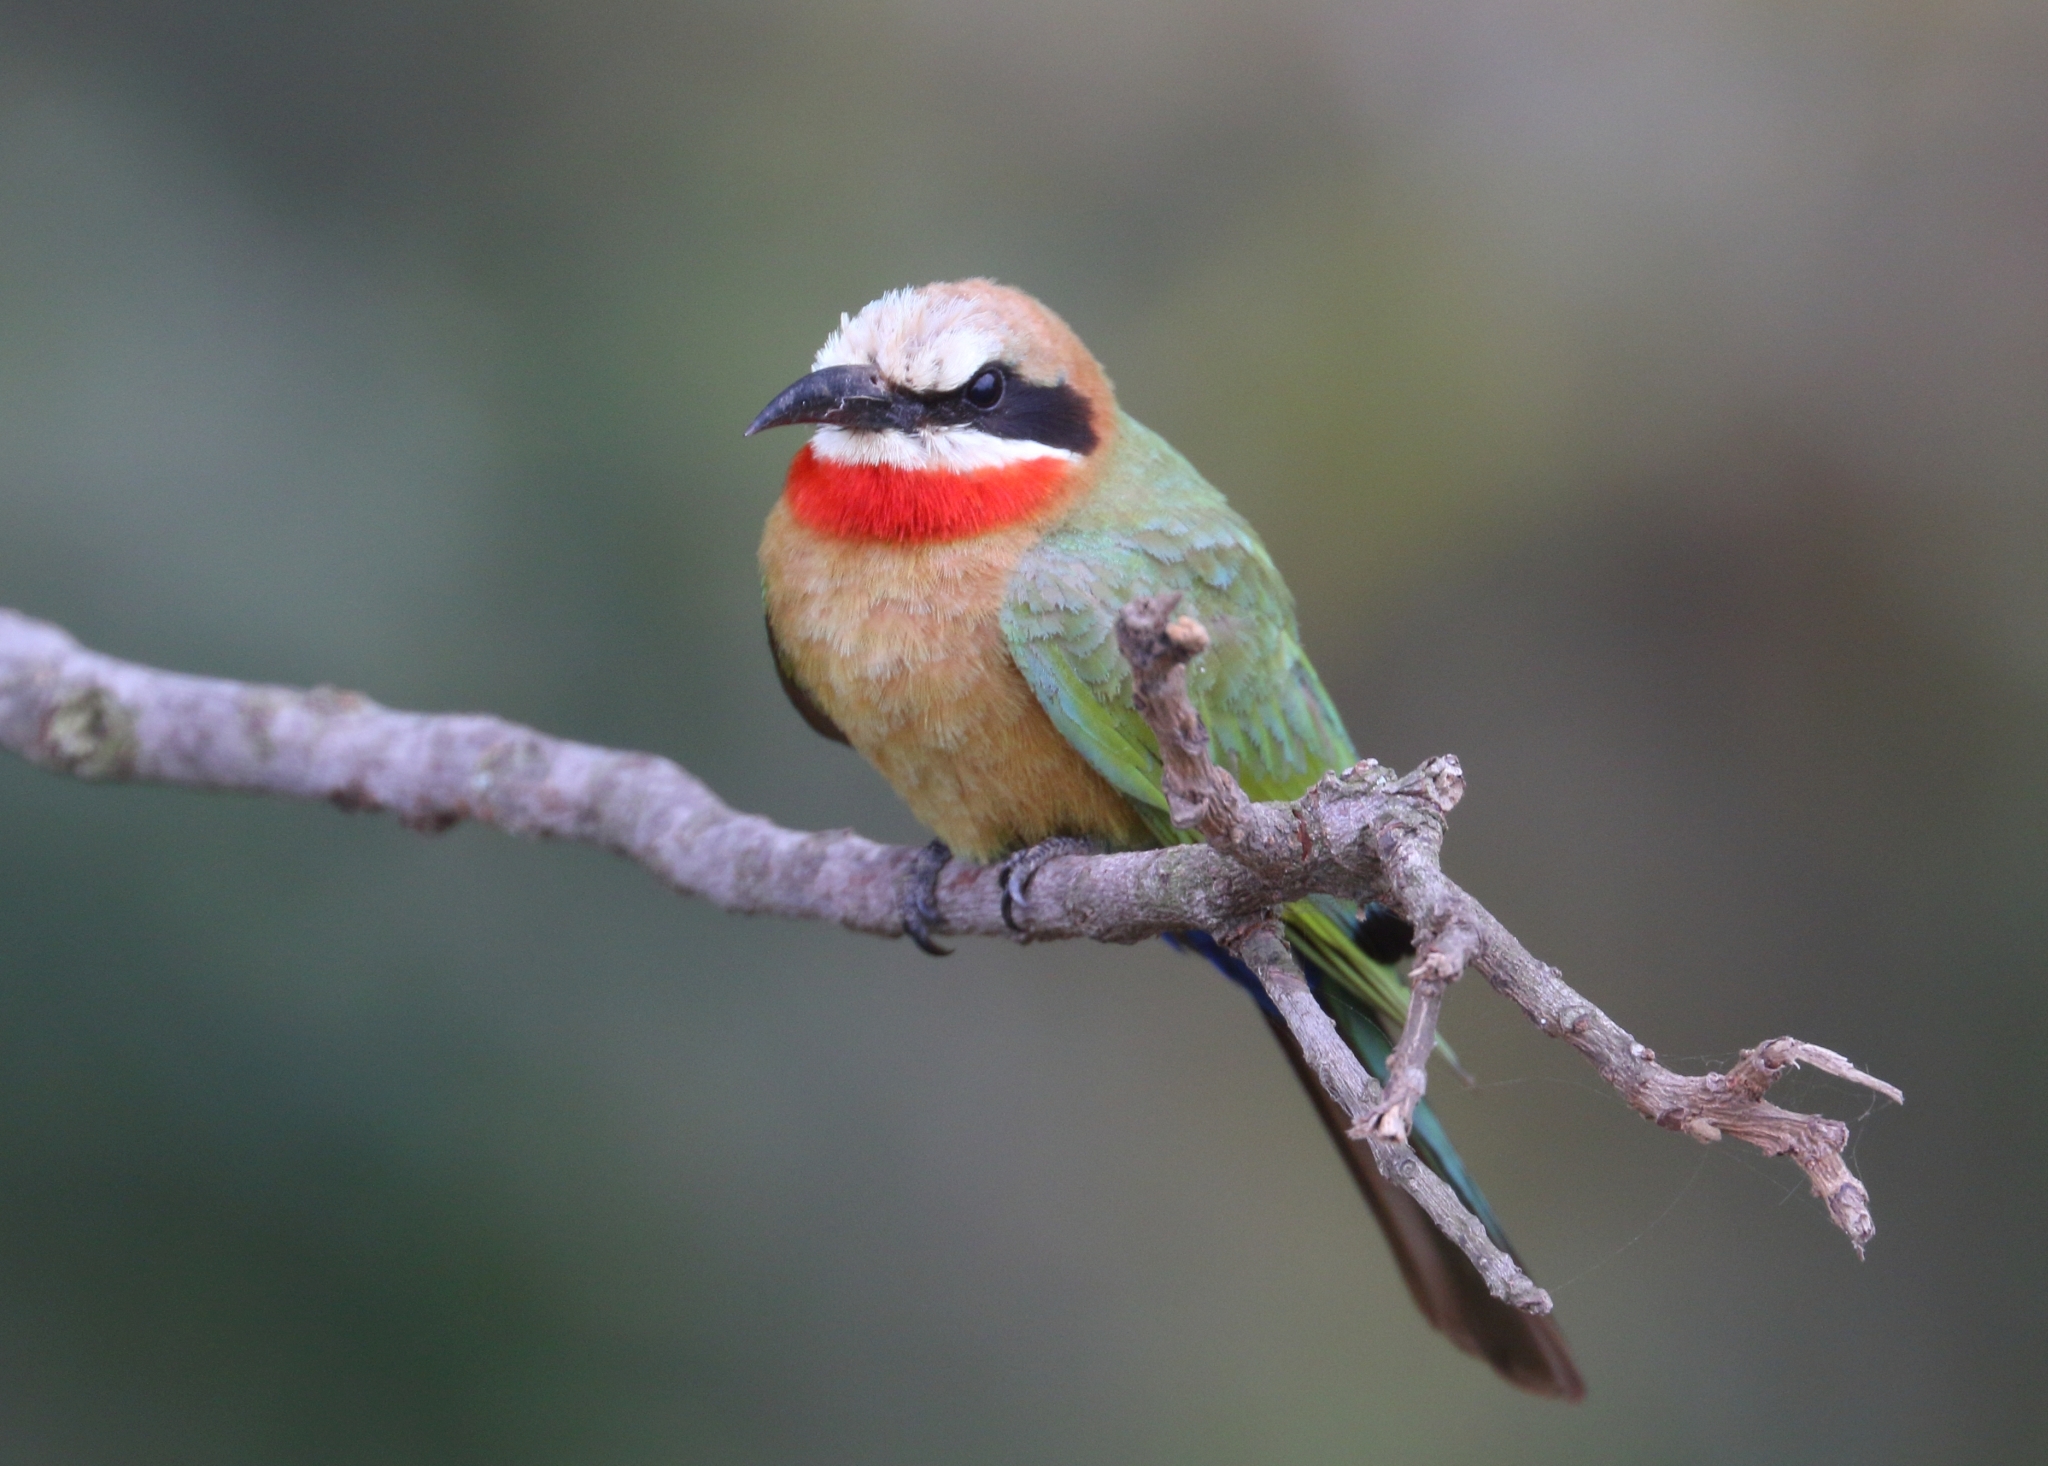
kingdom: Animalia
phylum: Chordata
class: Aves
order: Coraciiformes
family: Meropidae
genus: Merops
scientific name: Merops bullockoides
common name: White-fronted bee-eater
